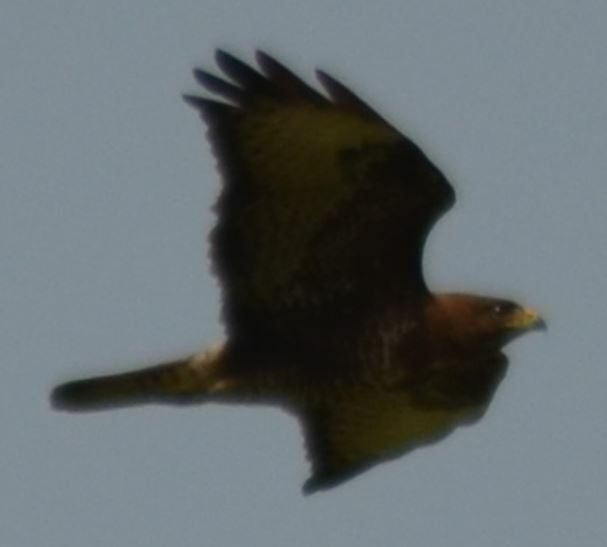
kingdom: Animalia
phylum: Chordata
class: Aves
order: Accipitriformes
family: Accipitridae
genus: Buteo
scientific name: Buteo buteo
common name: Common buzzard
